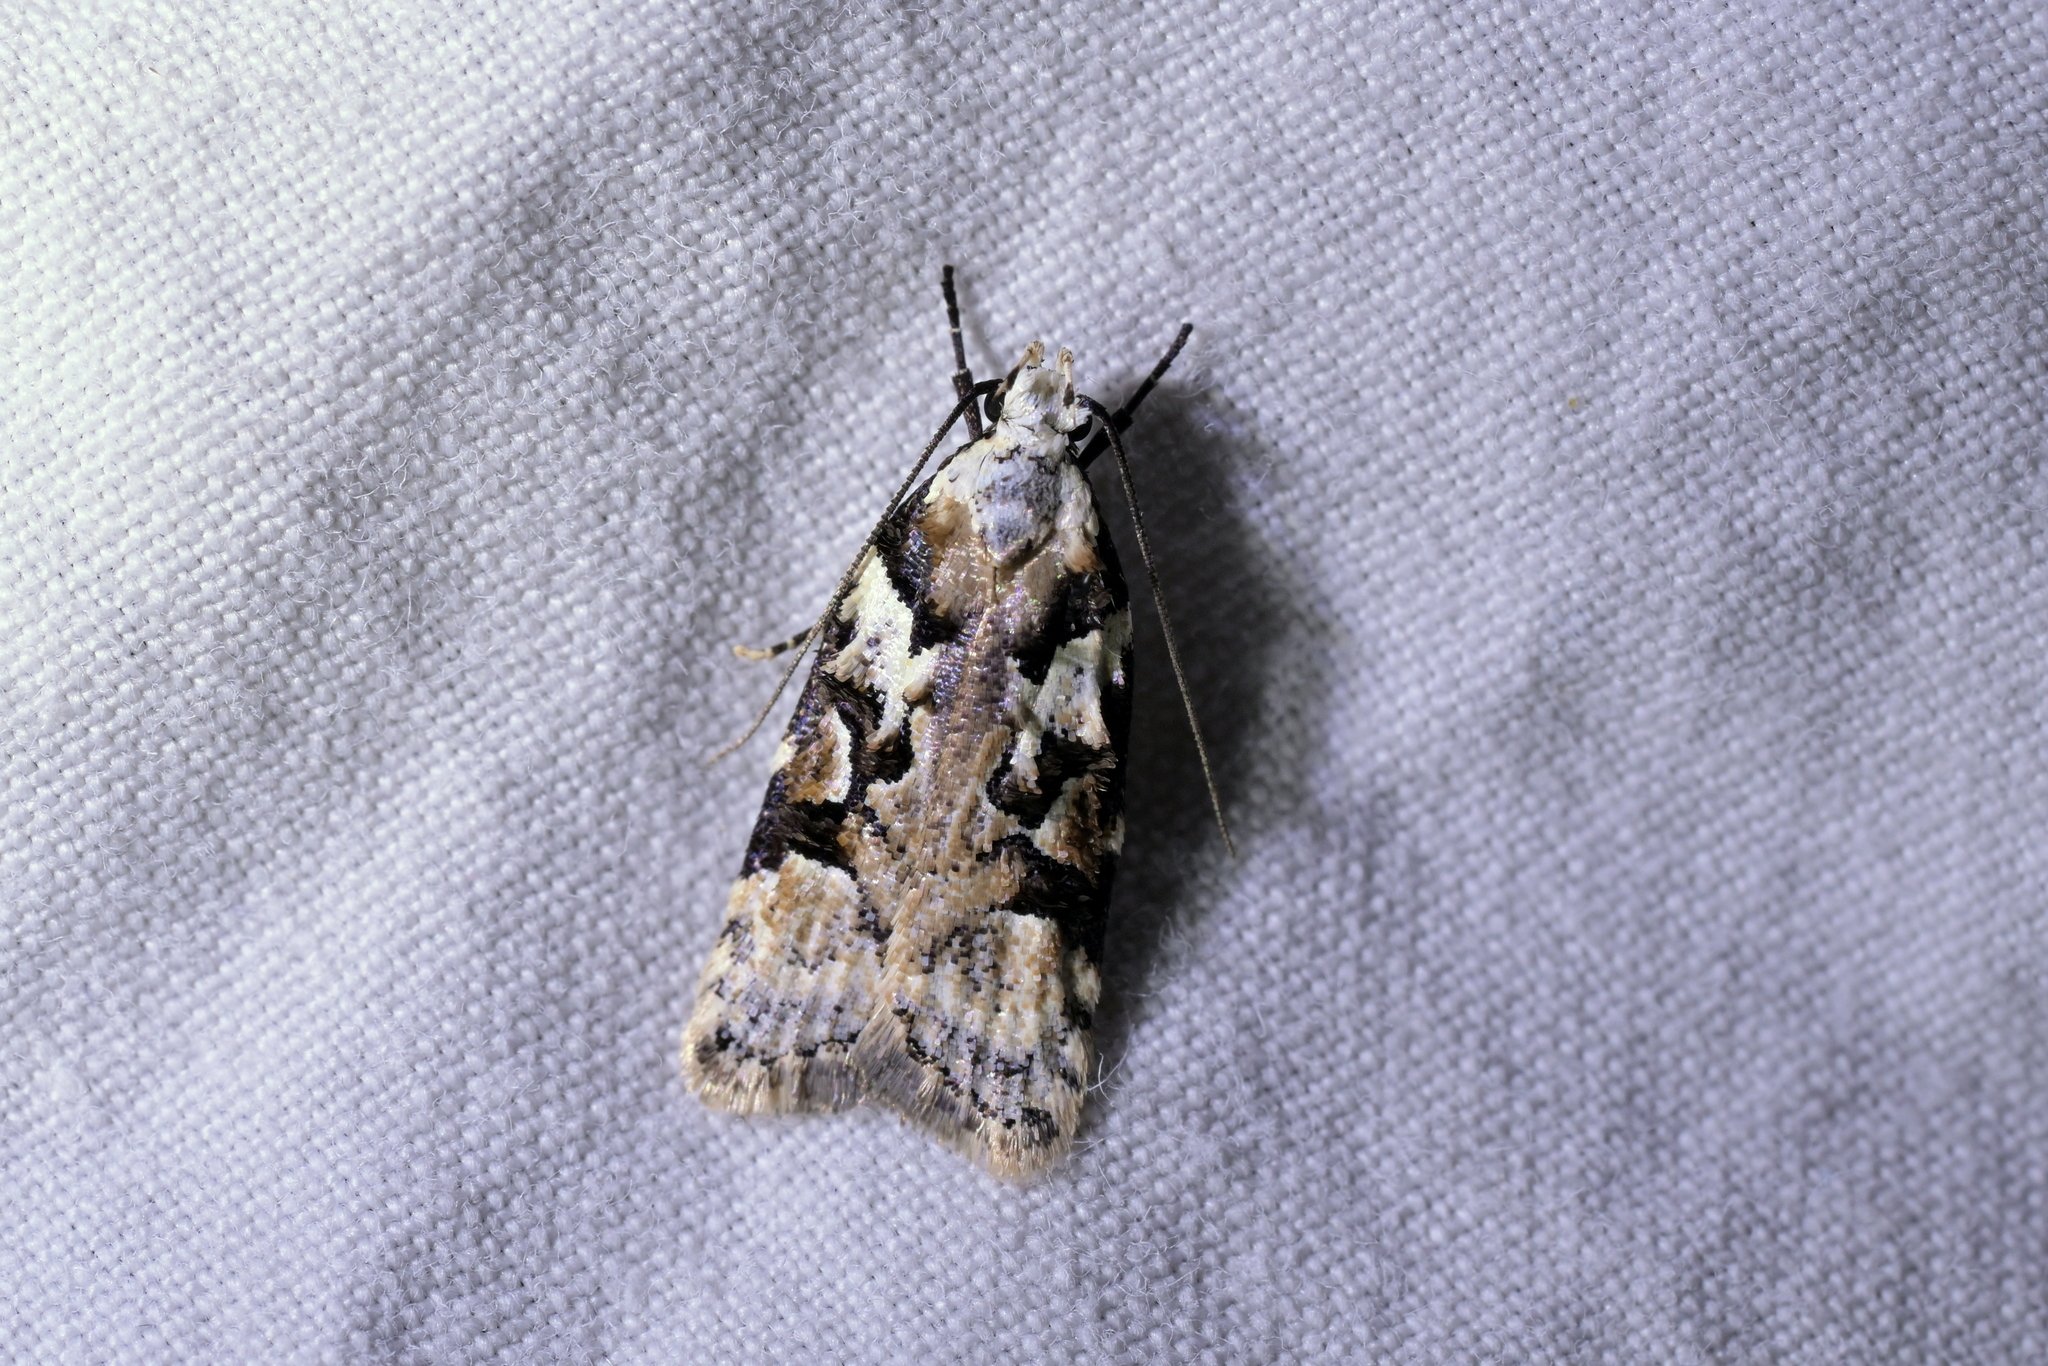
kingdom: Animalia
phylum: Arthropoda
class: Insecta
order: Lepidoptera
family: Oecophoridae
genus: Izatha
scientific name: Izatha epiphanes
